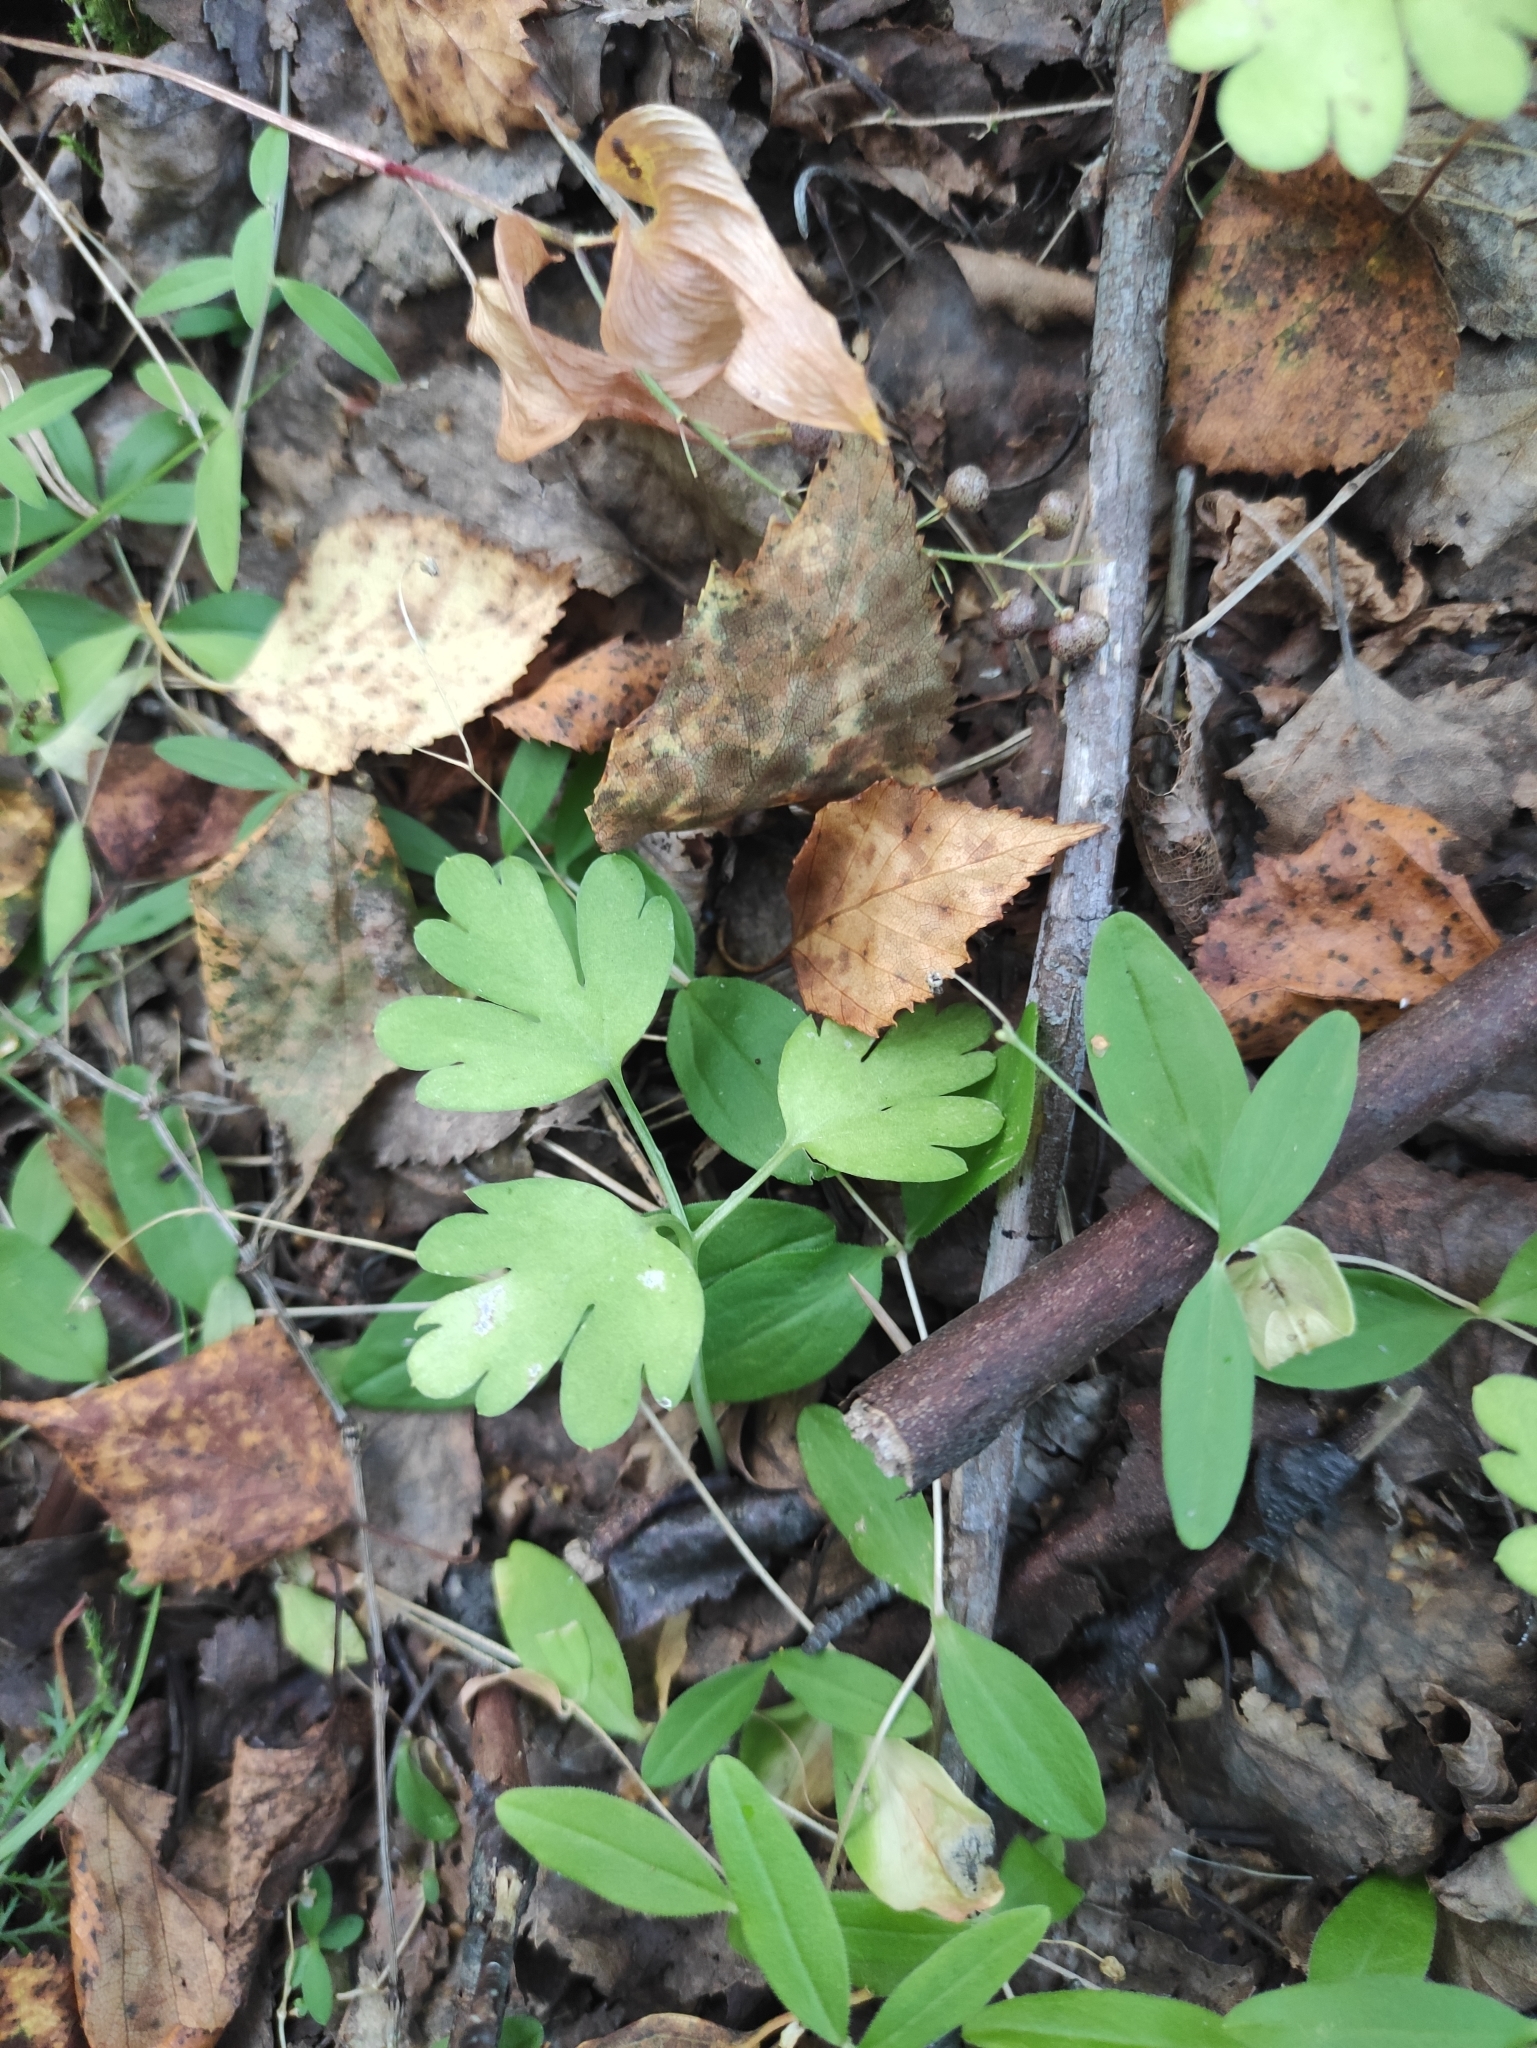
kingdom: Plantae
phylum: Tracheophyta
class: Magnoliopsida
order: Dipsacales
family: Viburnaceae
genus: Adoxa
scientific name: Adoxa moschatellina
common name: Moschatel
